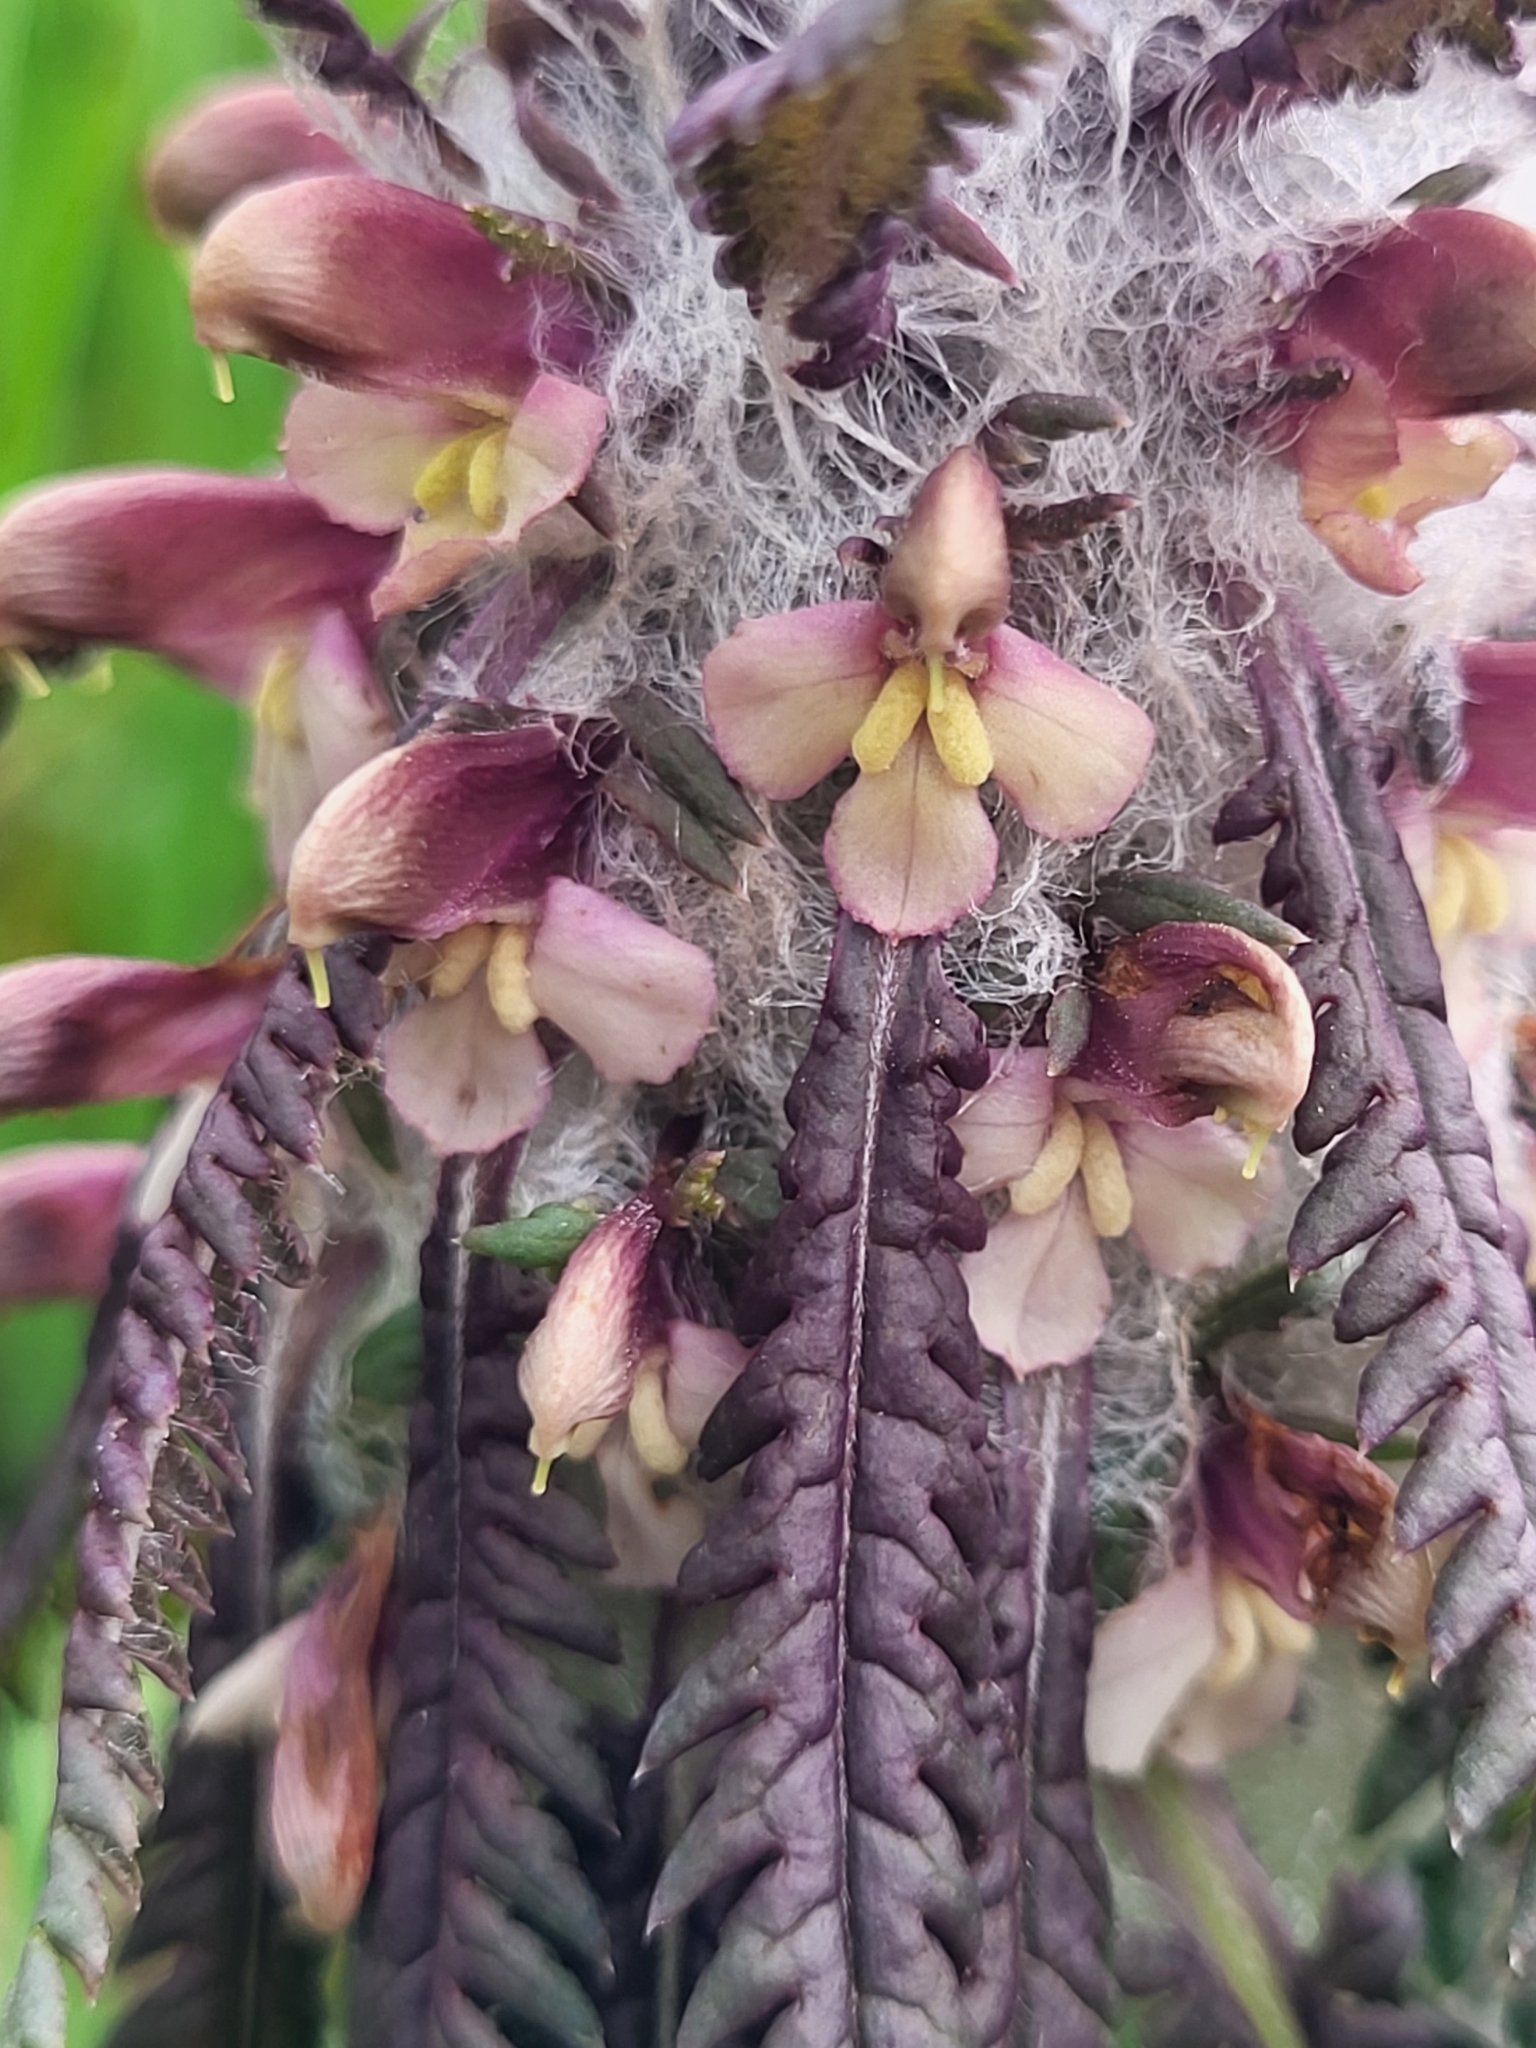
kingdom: Plantae
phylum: Tracheophyta
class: Magnoliopsida
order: Lamiales
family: Orobanchaceae
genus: Pedicularis
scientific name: Pedicularis wilhelmsiana
